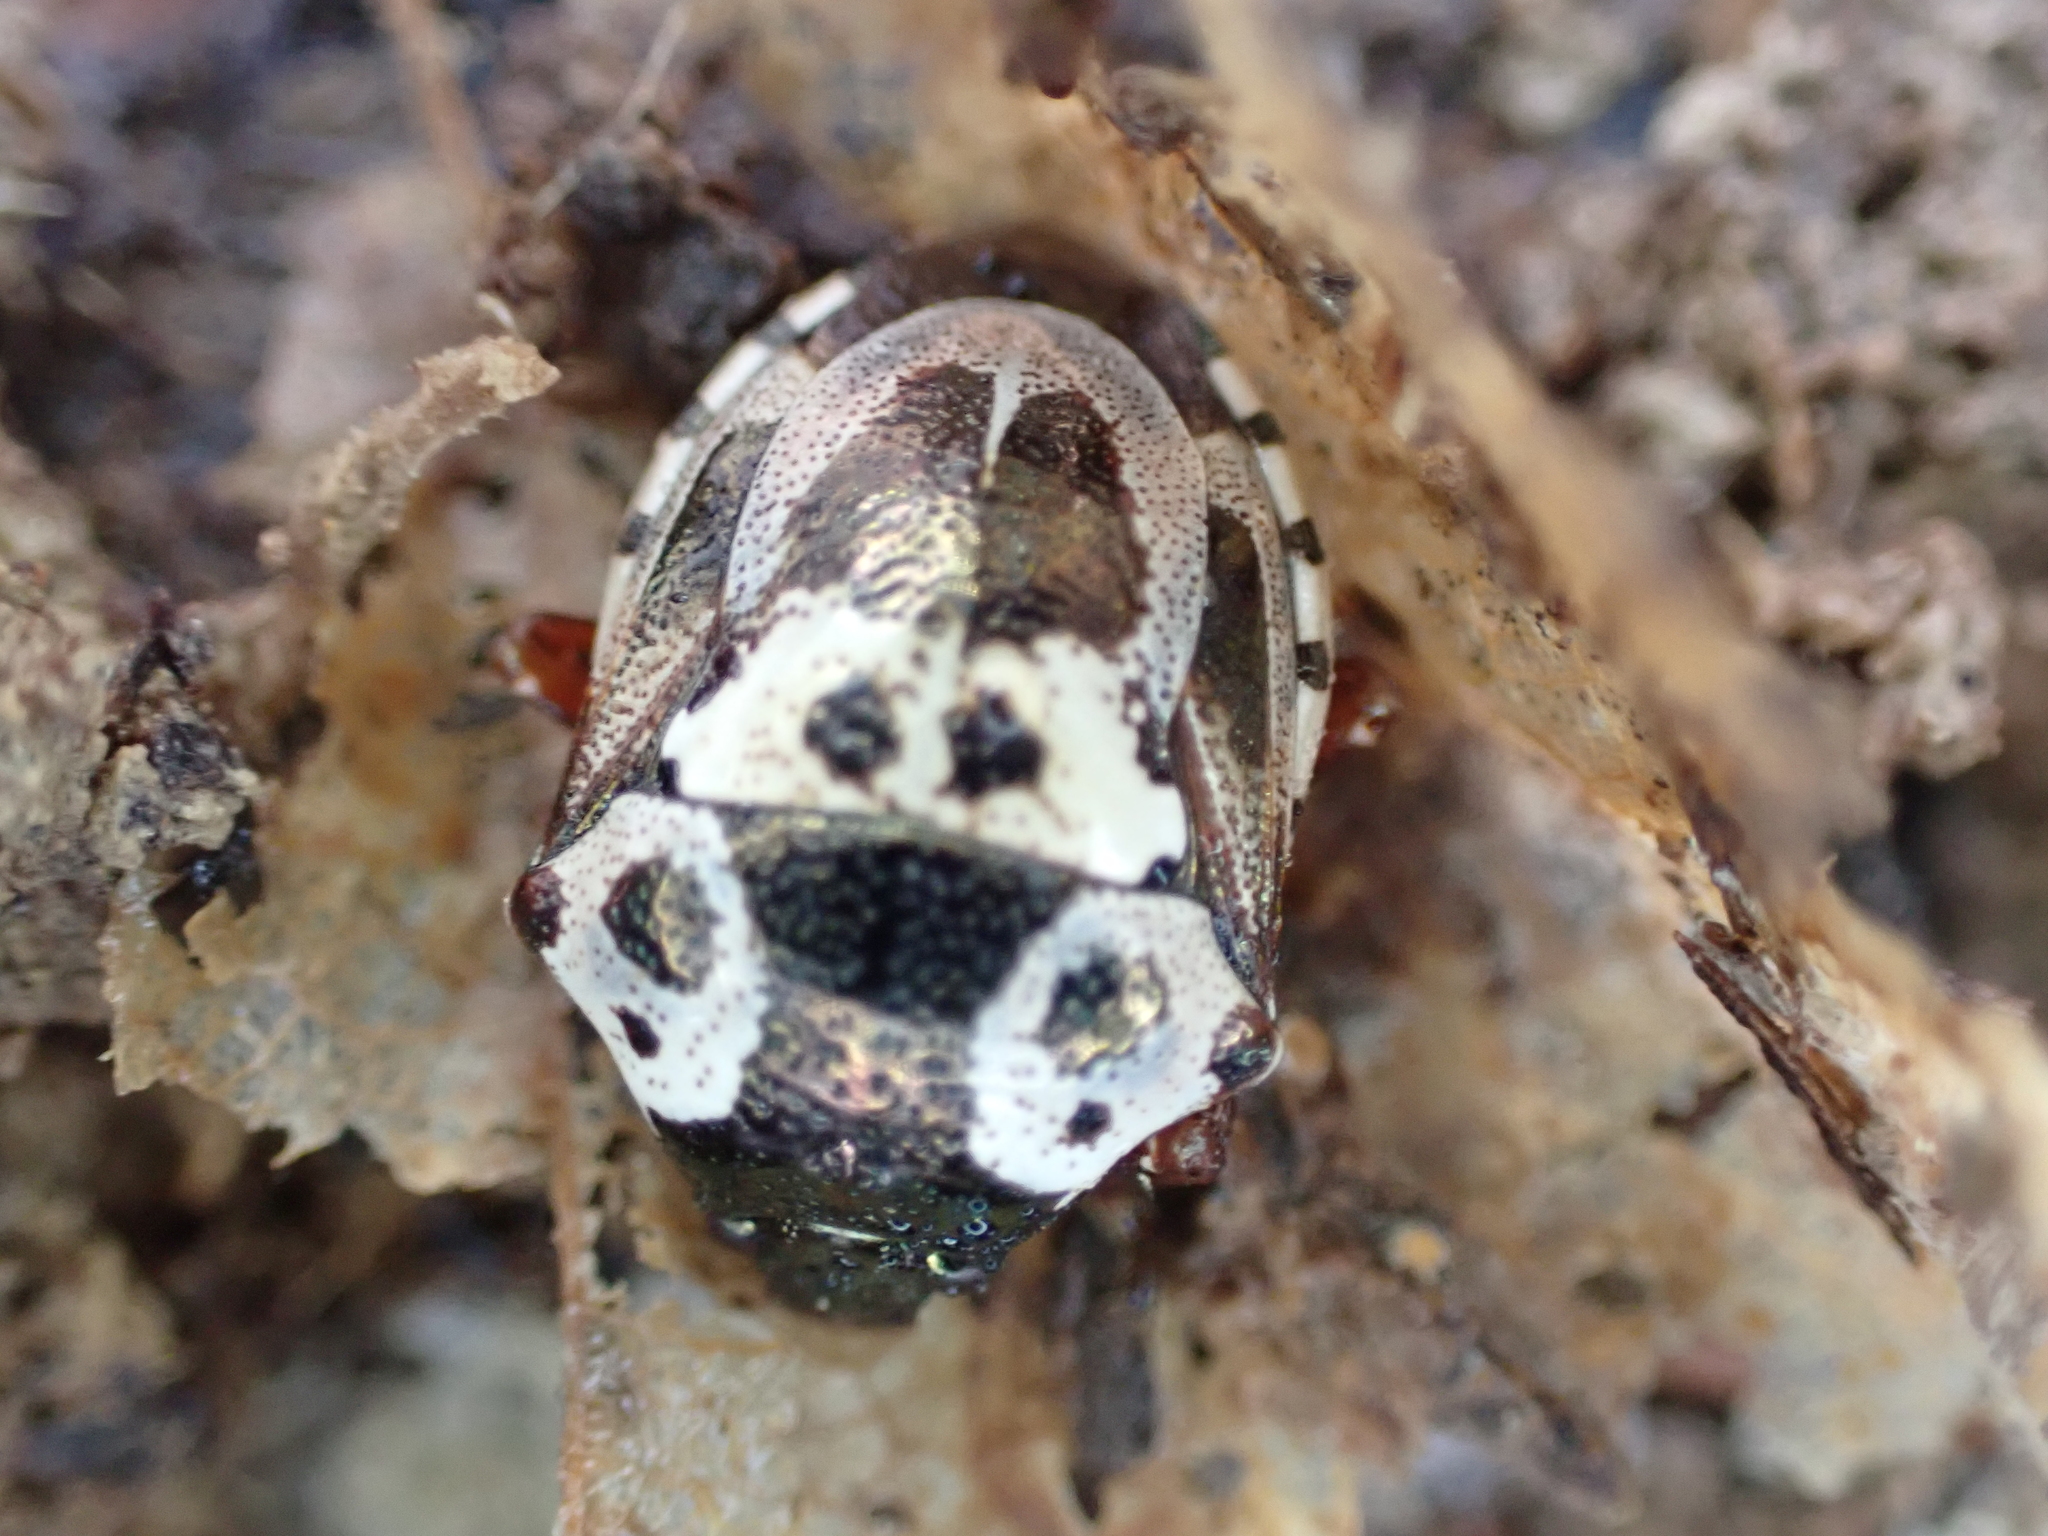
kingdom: Animalia
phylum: Arthropoda
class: Insecta
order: Hemiptera
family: Pentatomidae
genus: Stiretrus
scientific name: Stiretrus anchorago
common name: Anchor stink bug
